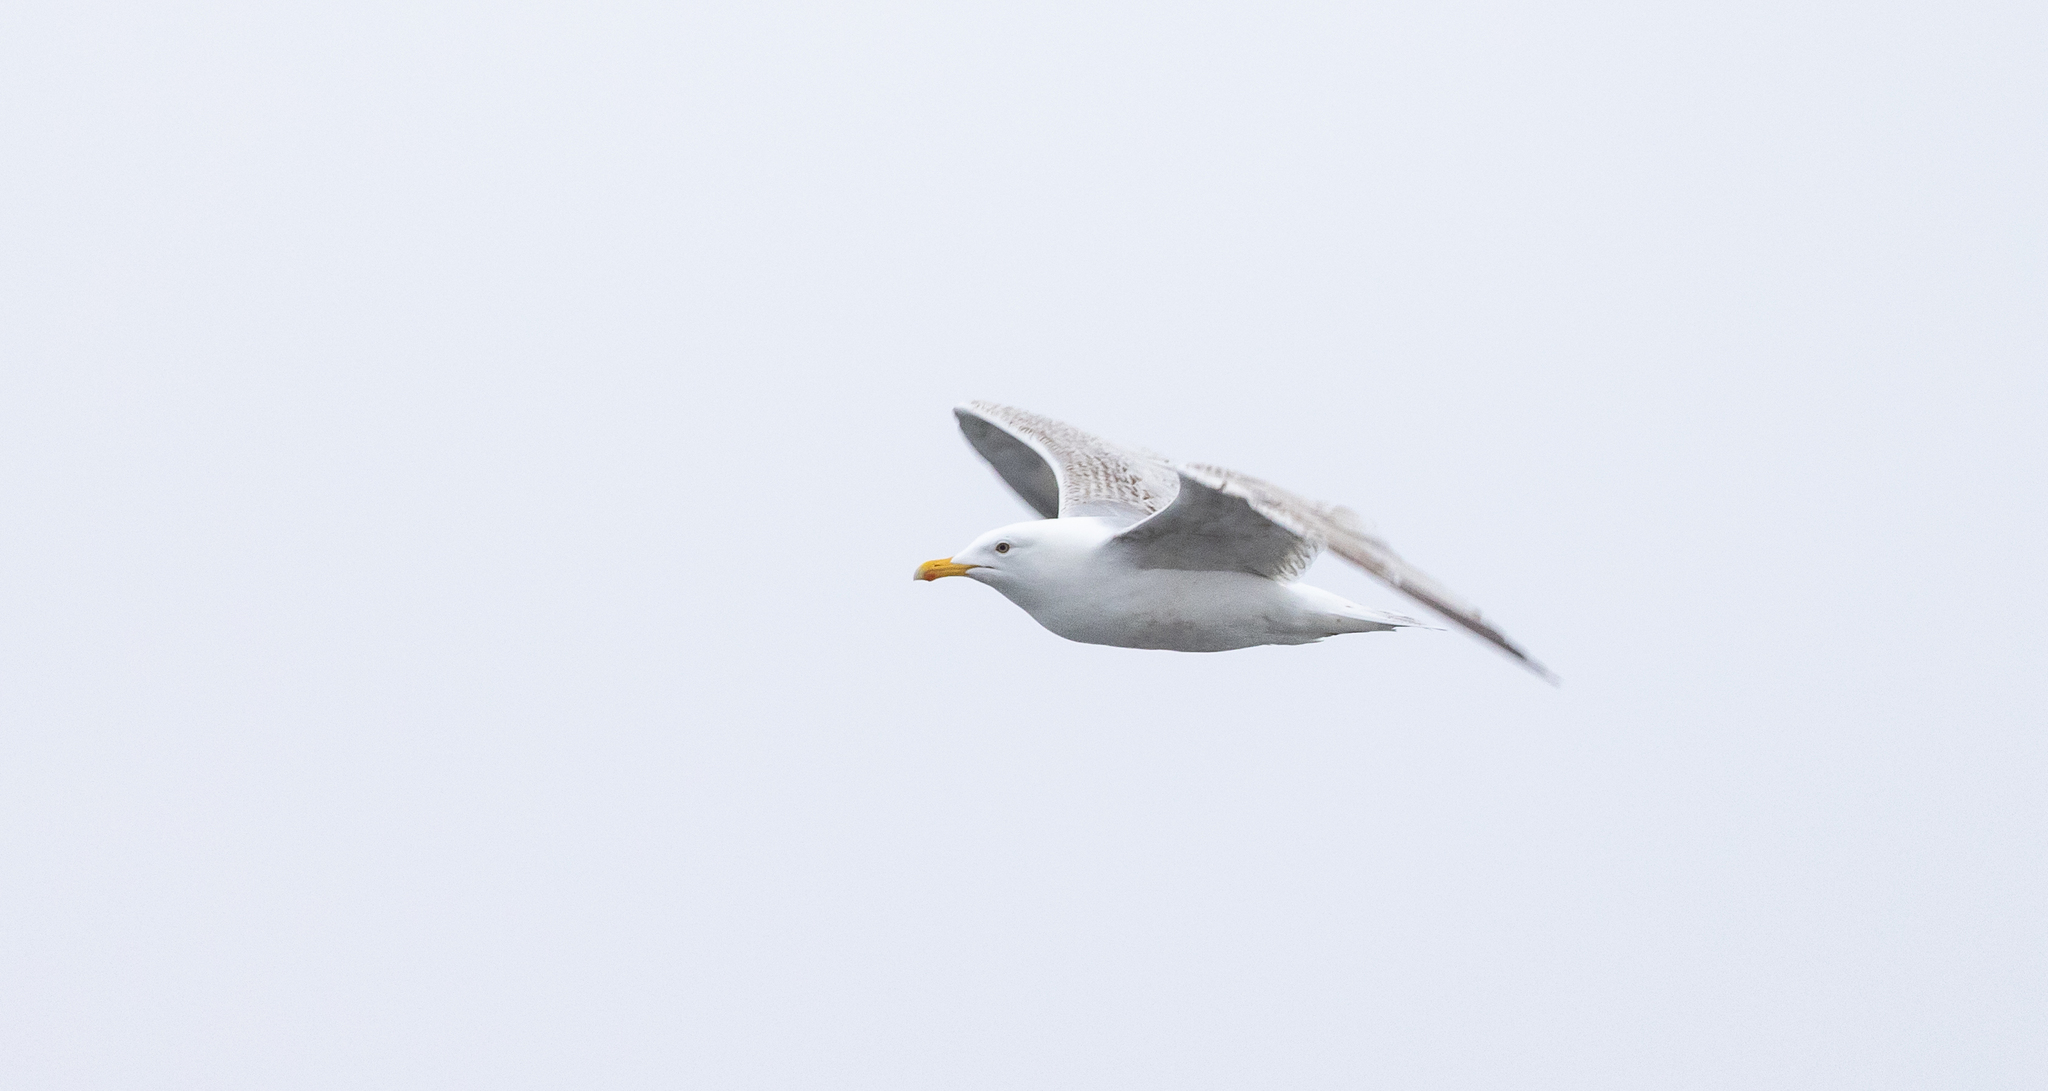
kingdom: Animalia
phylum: Chordata
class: Aves
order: Charadriiformes
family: Laridae
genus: Larus
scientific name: Larus argentatus
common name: Herring gull
